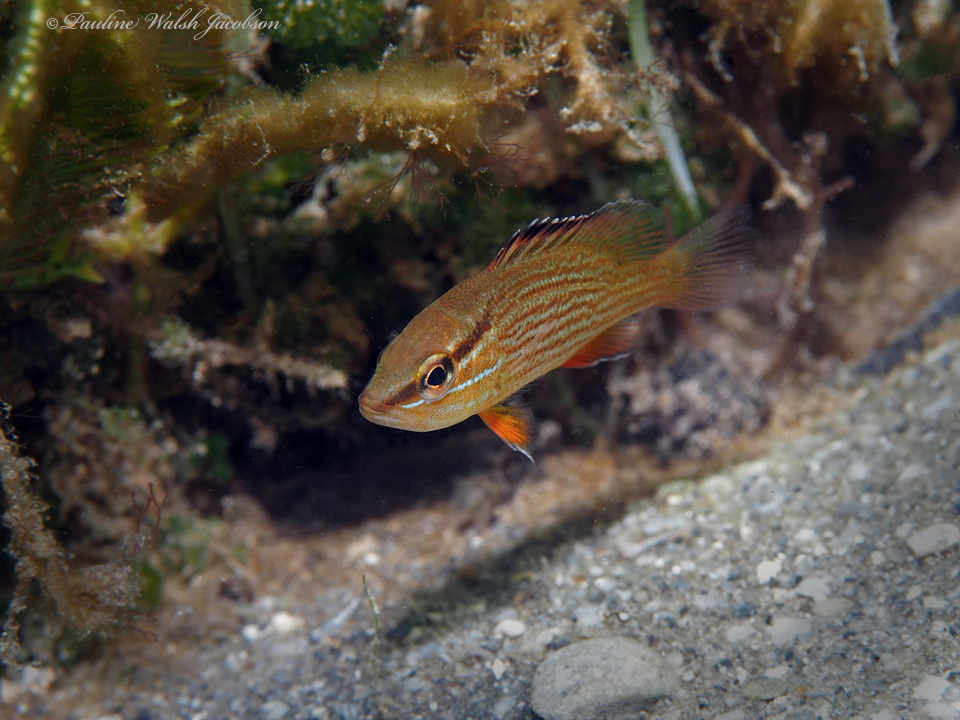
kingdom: Animalia
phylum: Chordata
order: Perciformes
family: Lutjanidae
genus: Lutjanus
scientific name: Lutjanus griseus
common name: Gray snapper
